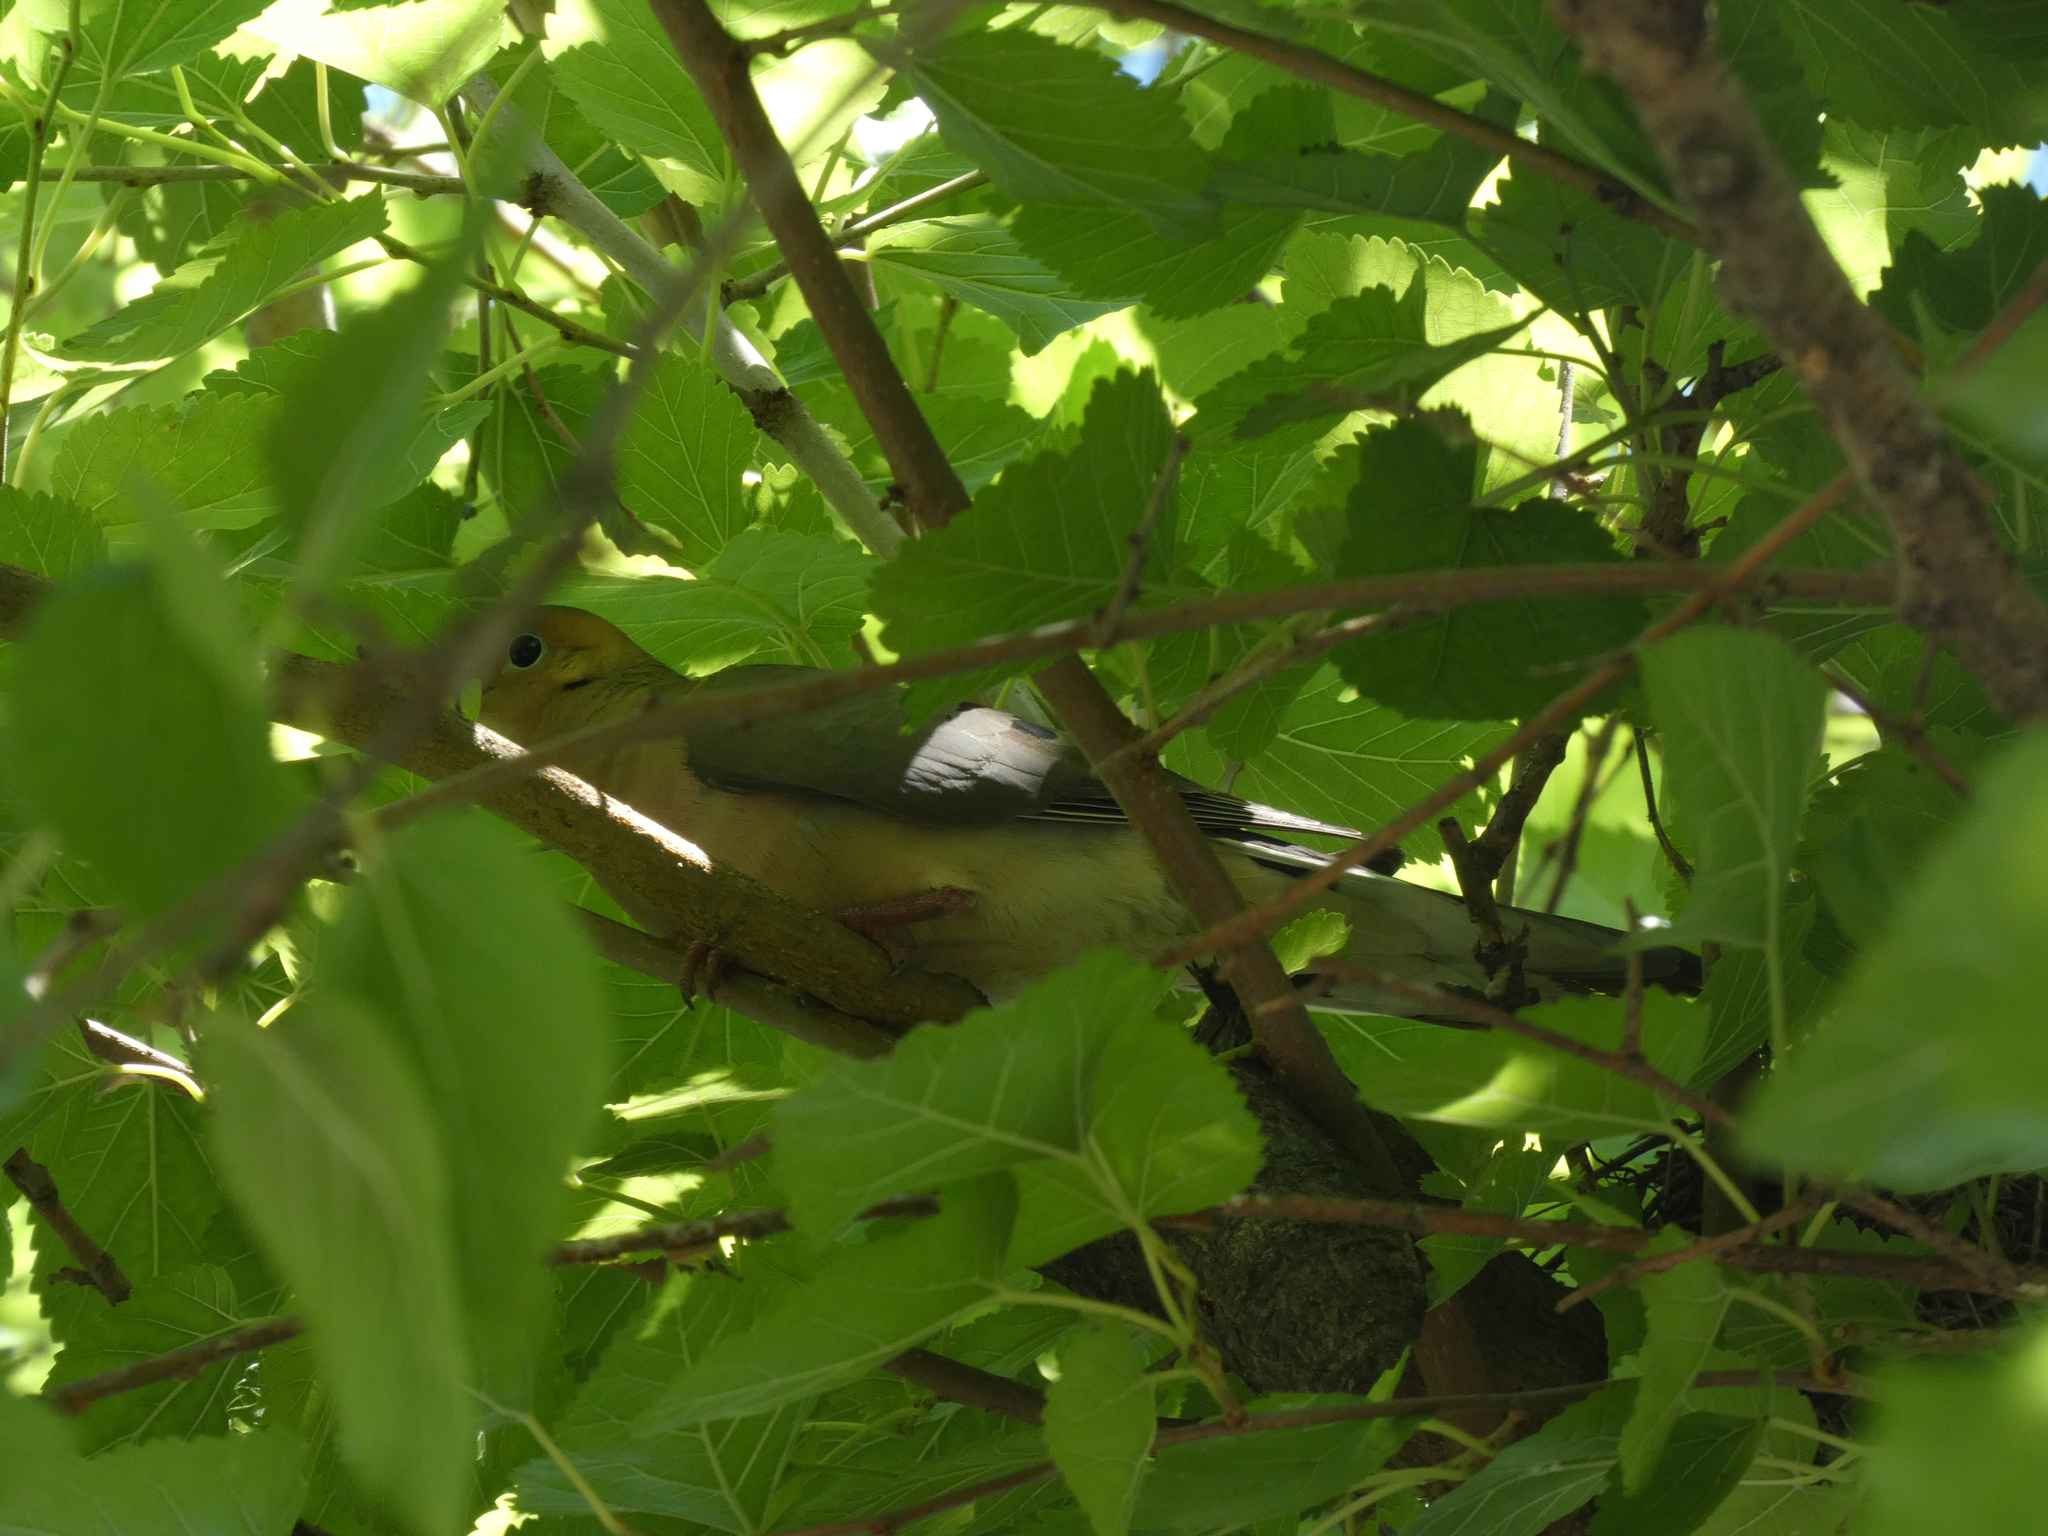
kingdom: Animalia
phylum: Chordata
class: Aves
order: Columbiformes
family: Columbidae
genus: Zenaida
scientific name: Zenaida macroura
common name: Mourning dove
